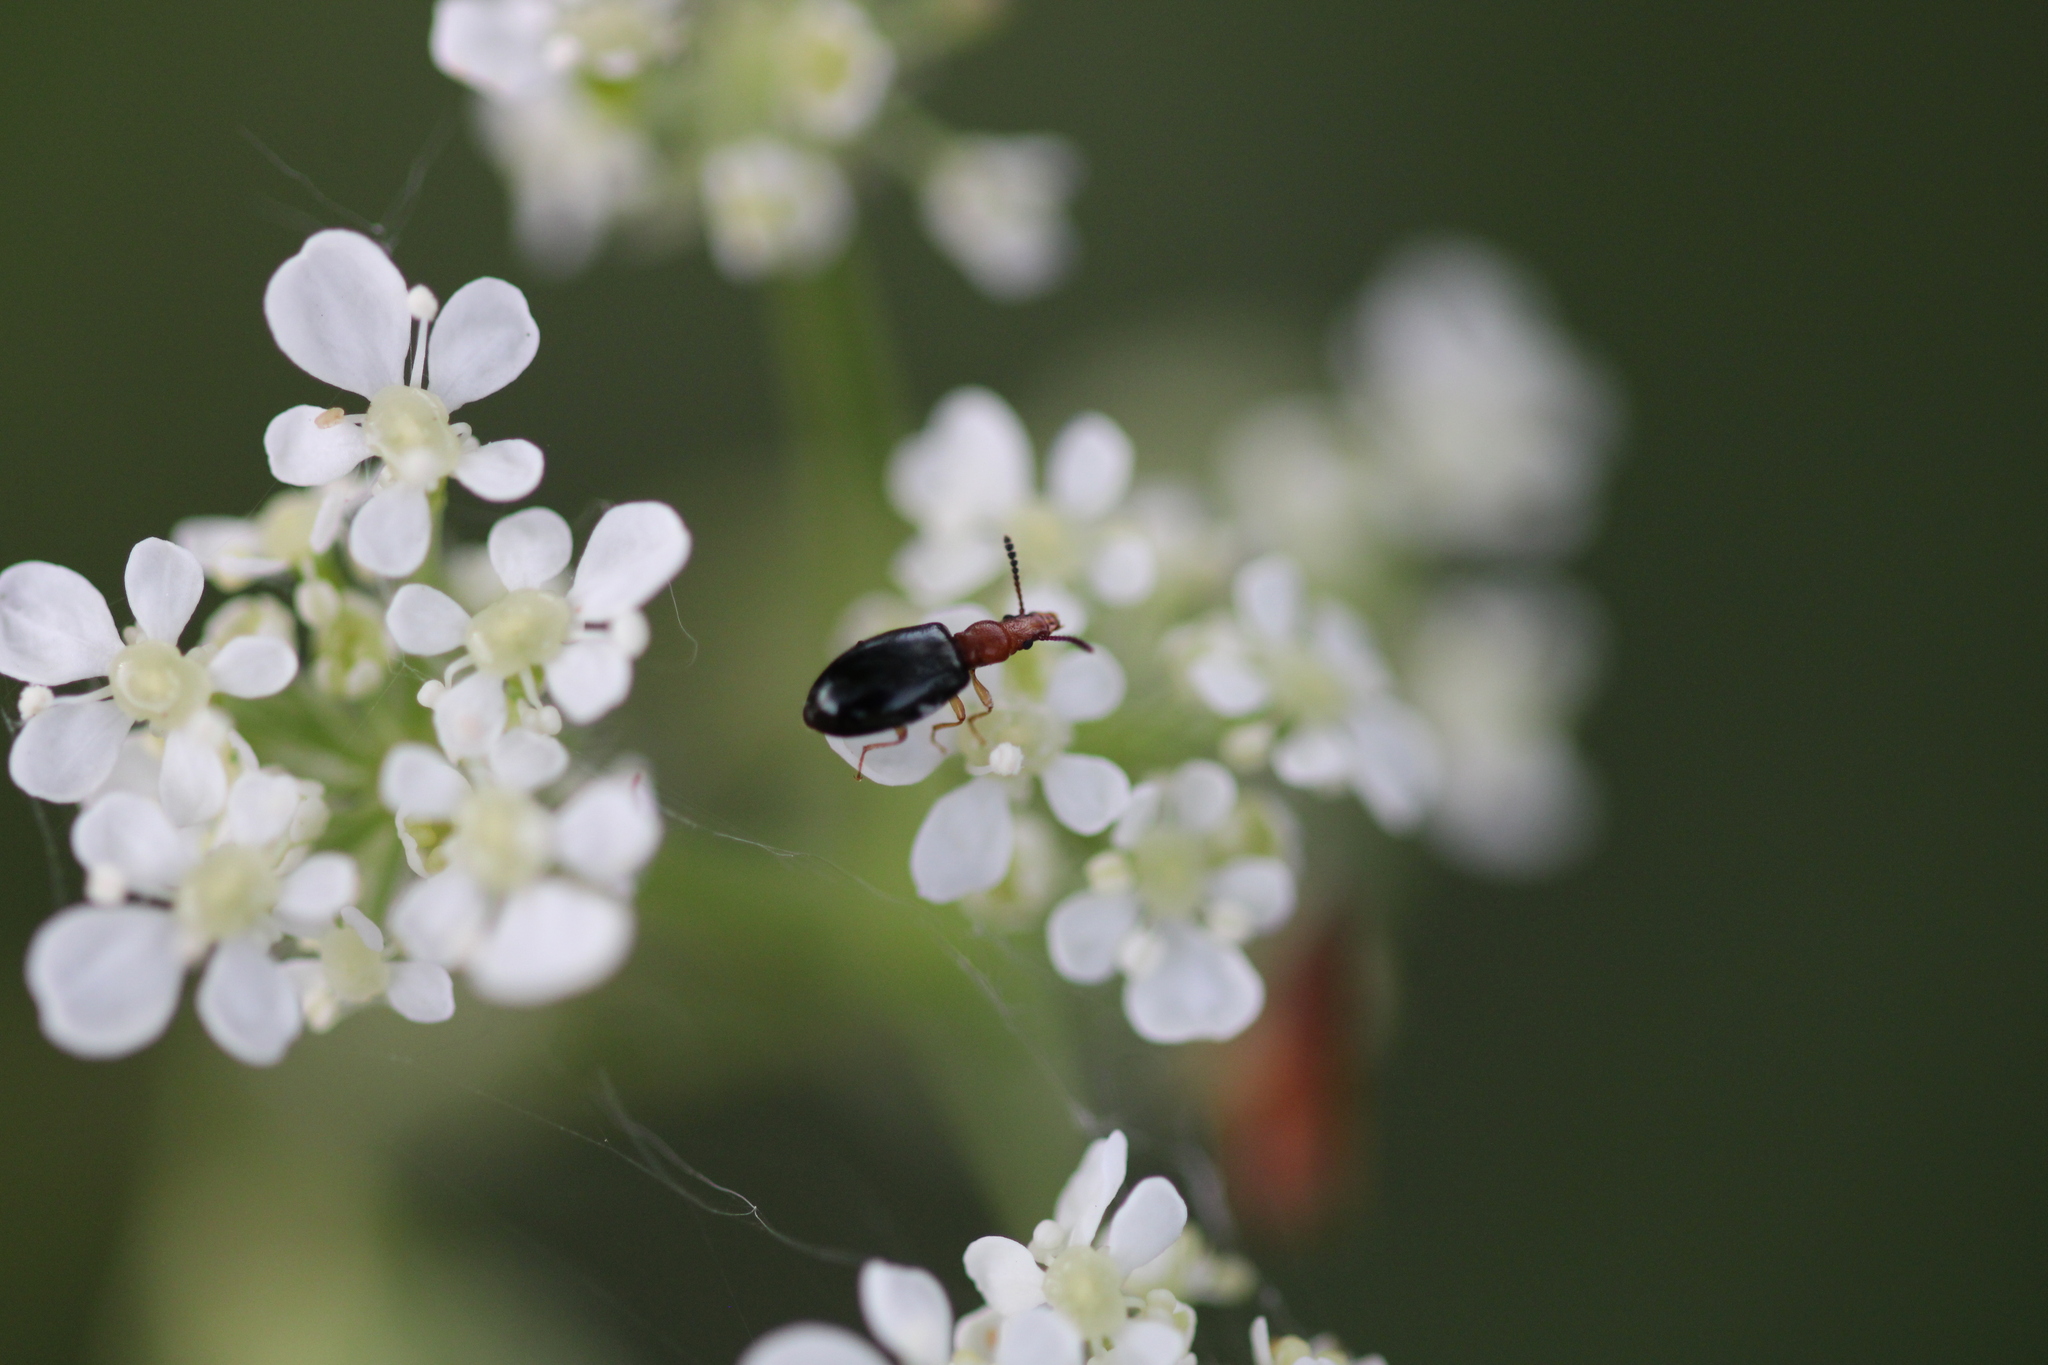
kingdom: Animalia
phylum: Arthropoda
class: Insecta
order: Coleoptera
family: Salpingidae
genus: Vincenzellus
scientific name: Vincenzellus ruficollis
